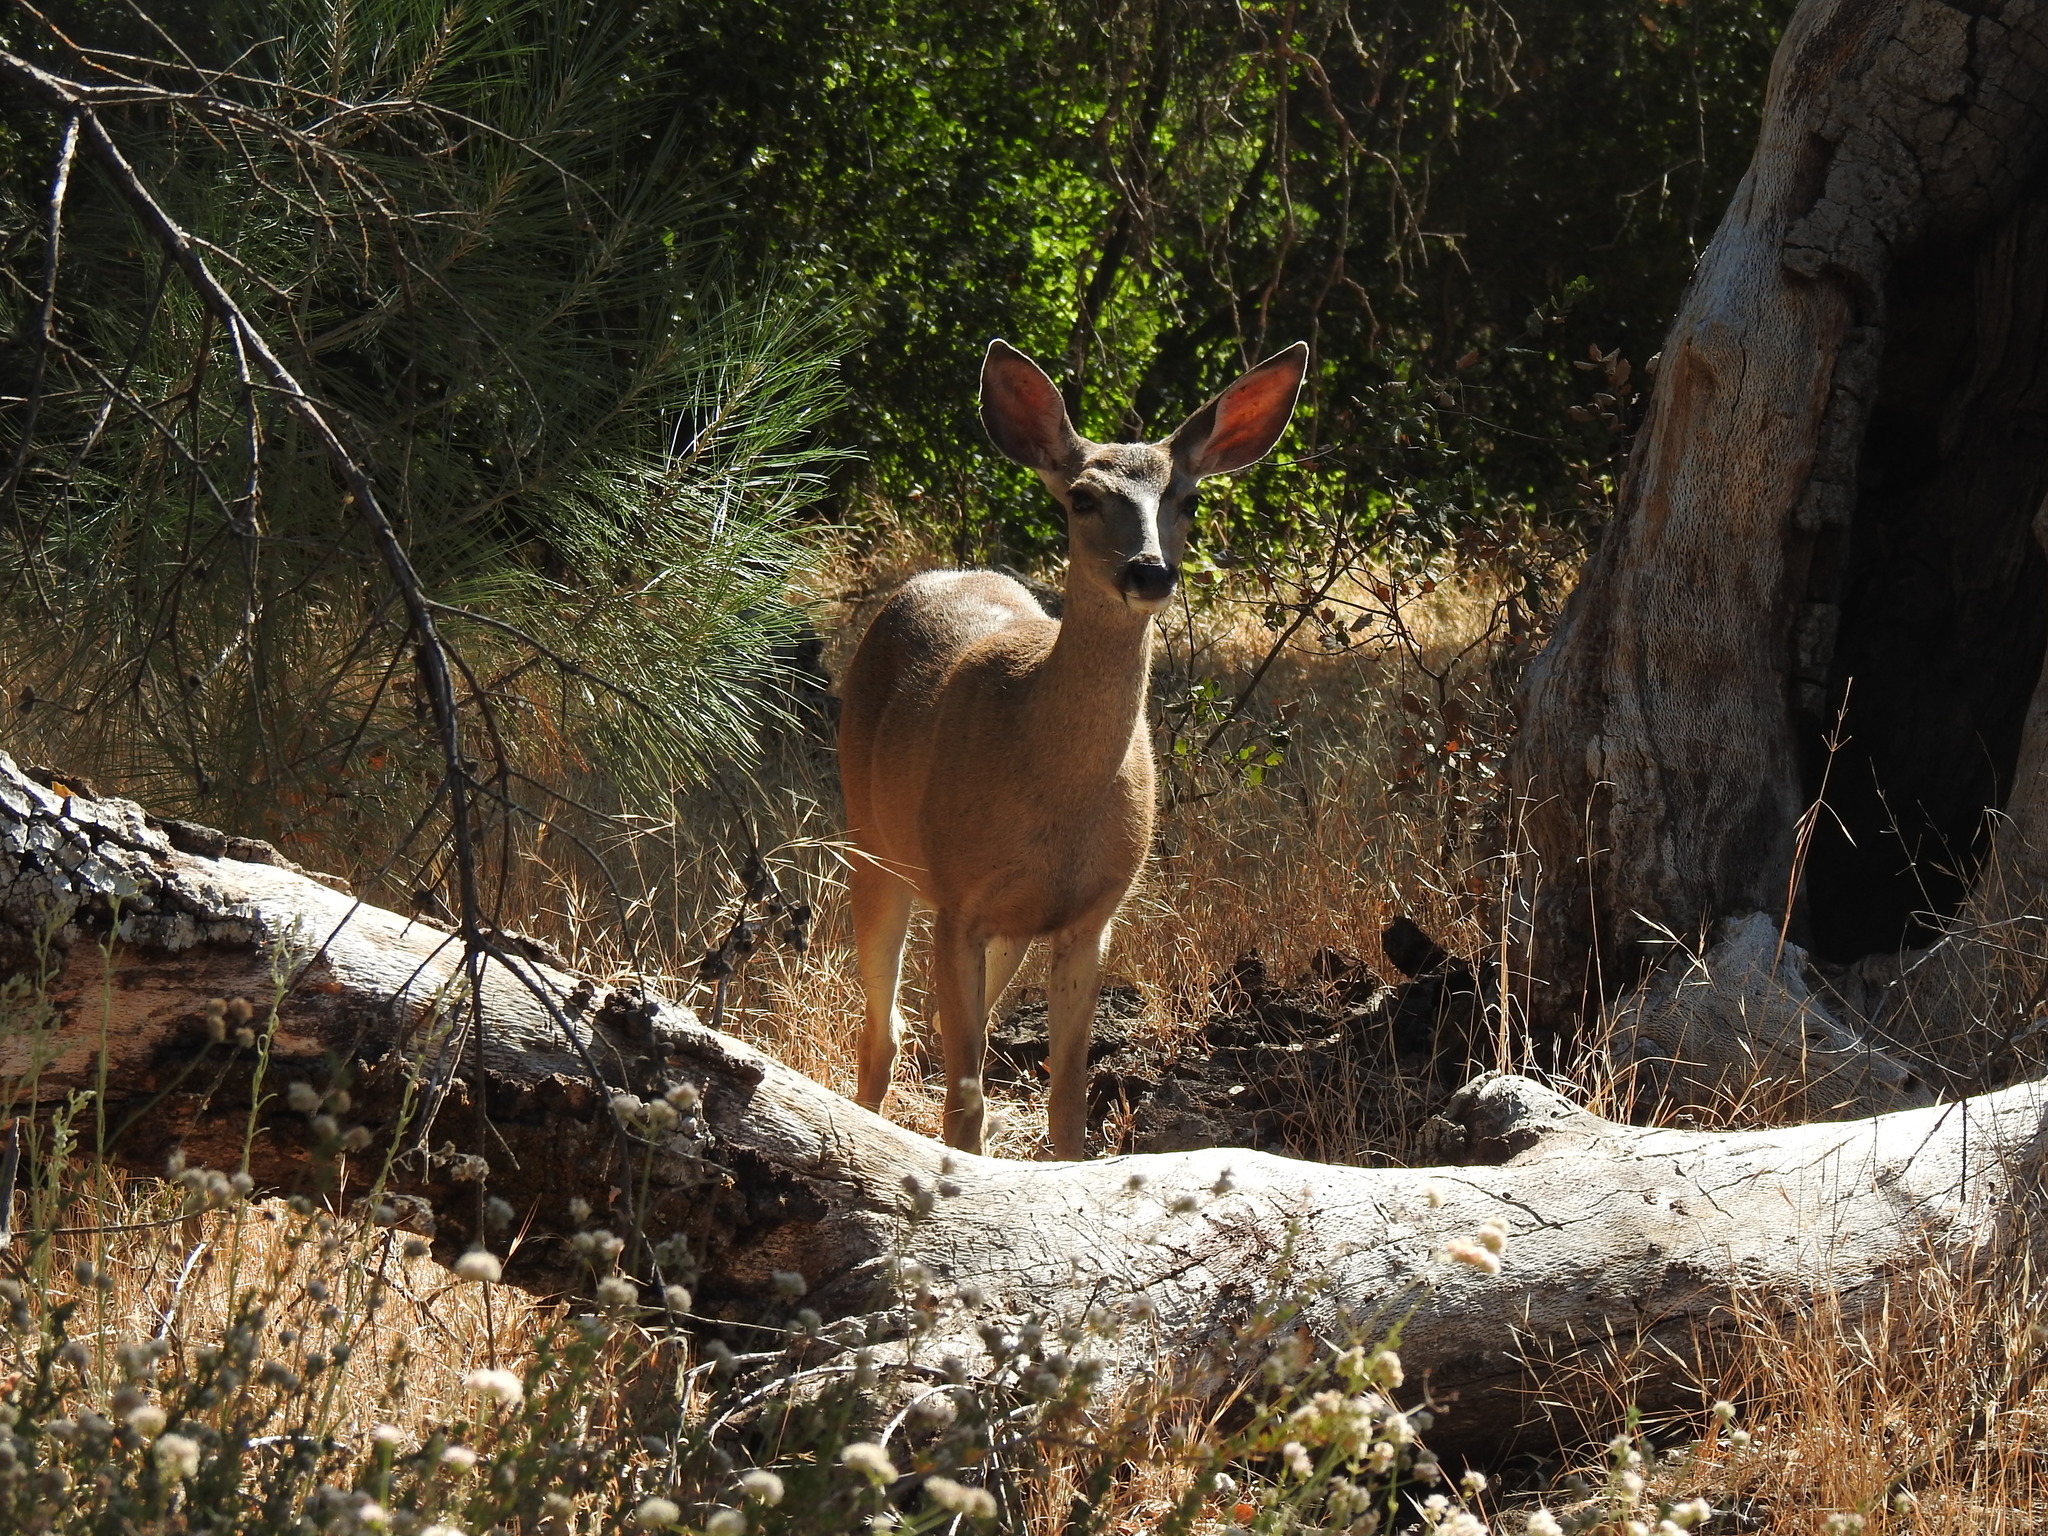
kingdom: Animalia
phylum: Chordata
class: Mammalia
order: Artiodactyla
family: Cervidae
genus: Odocoileus
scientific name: Odocoileus hemionus
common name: Mule deer
